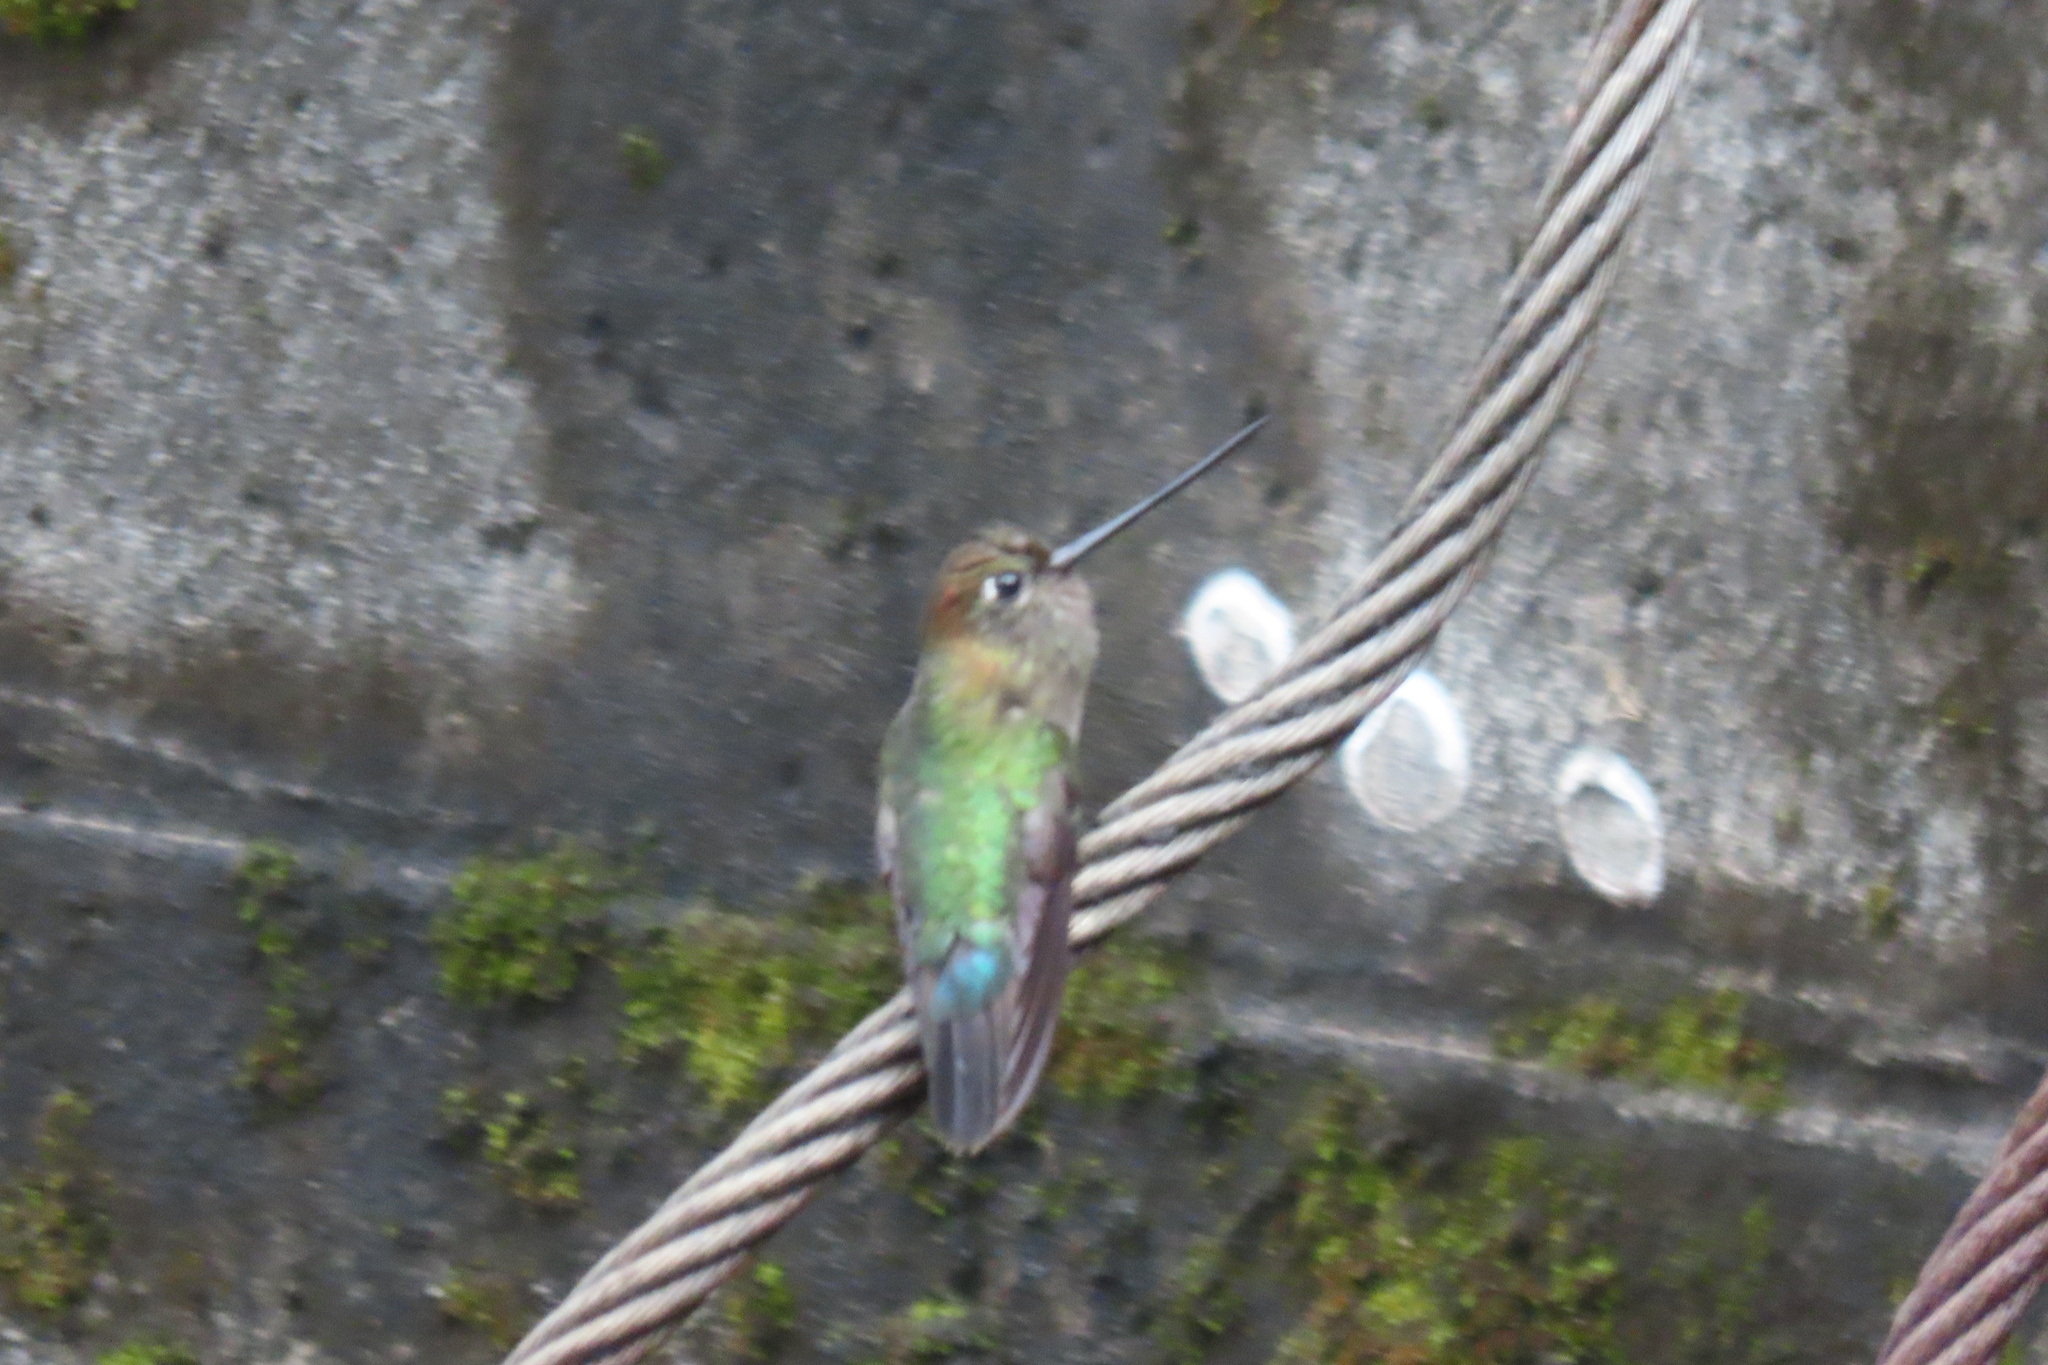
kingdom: Animalia
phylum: Chordata
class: Aves
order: Apodiformes
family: Trochilidae
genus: Doryfera
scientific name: Doryfera ludovicae
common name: Green-fronted lancebill
